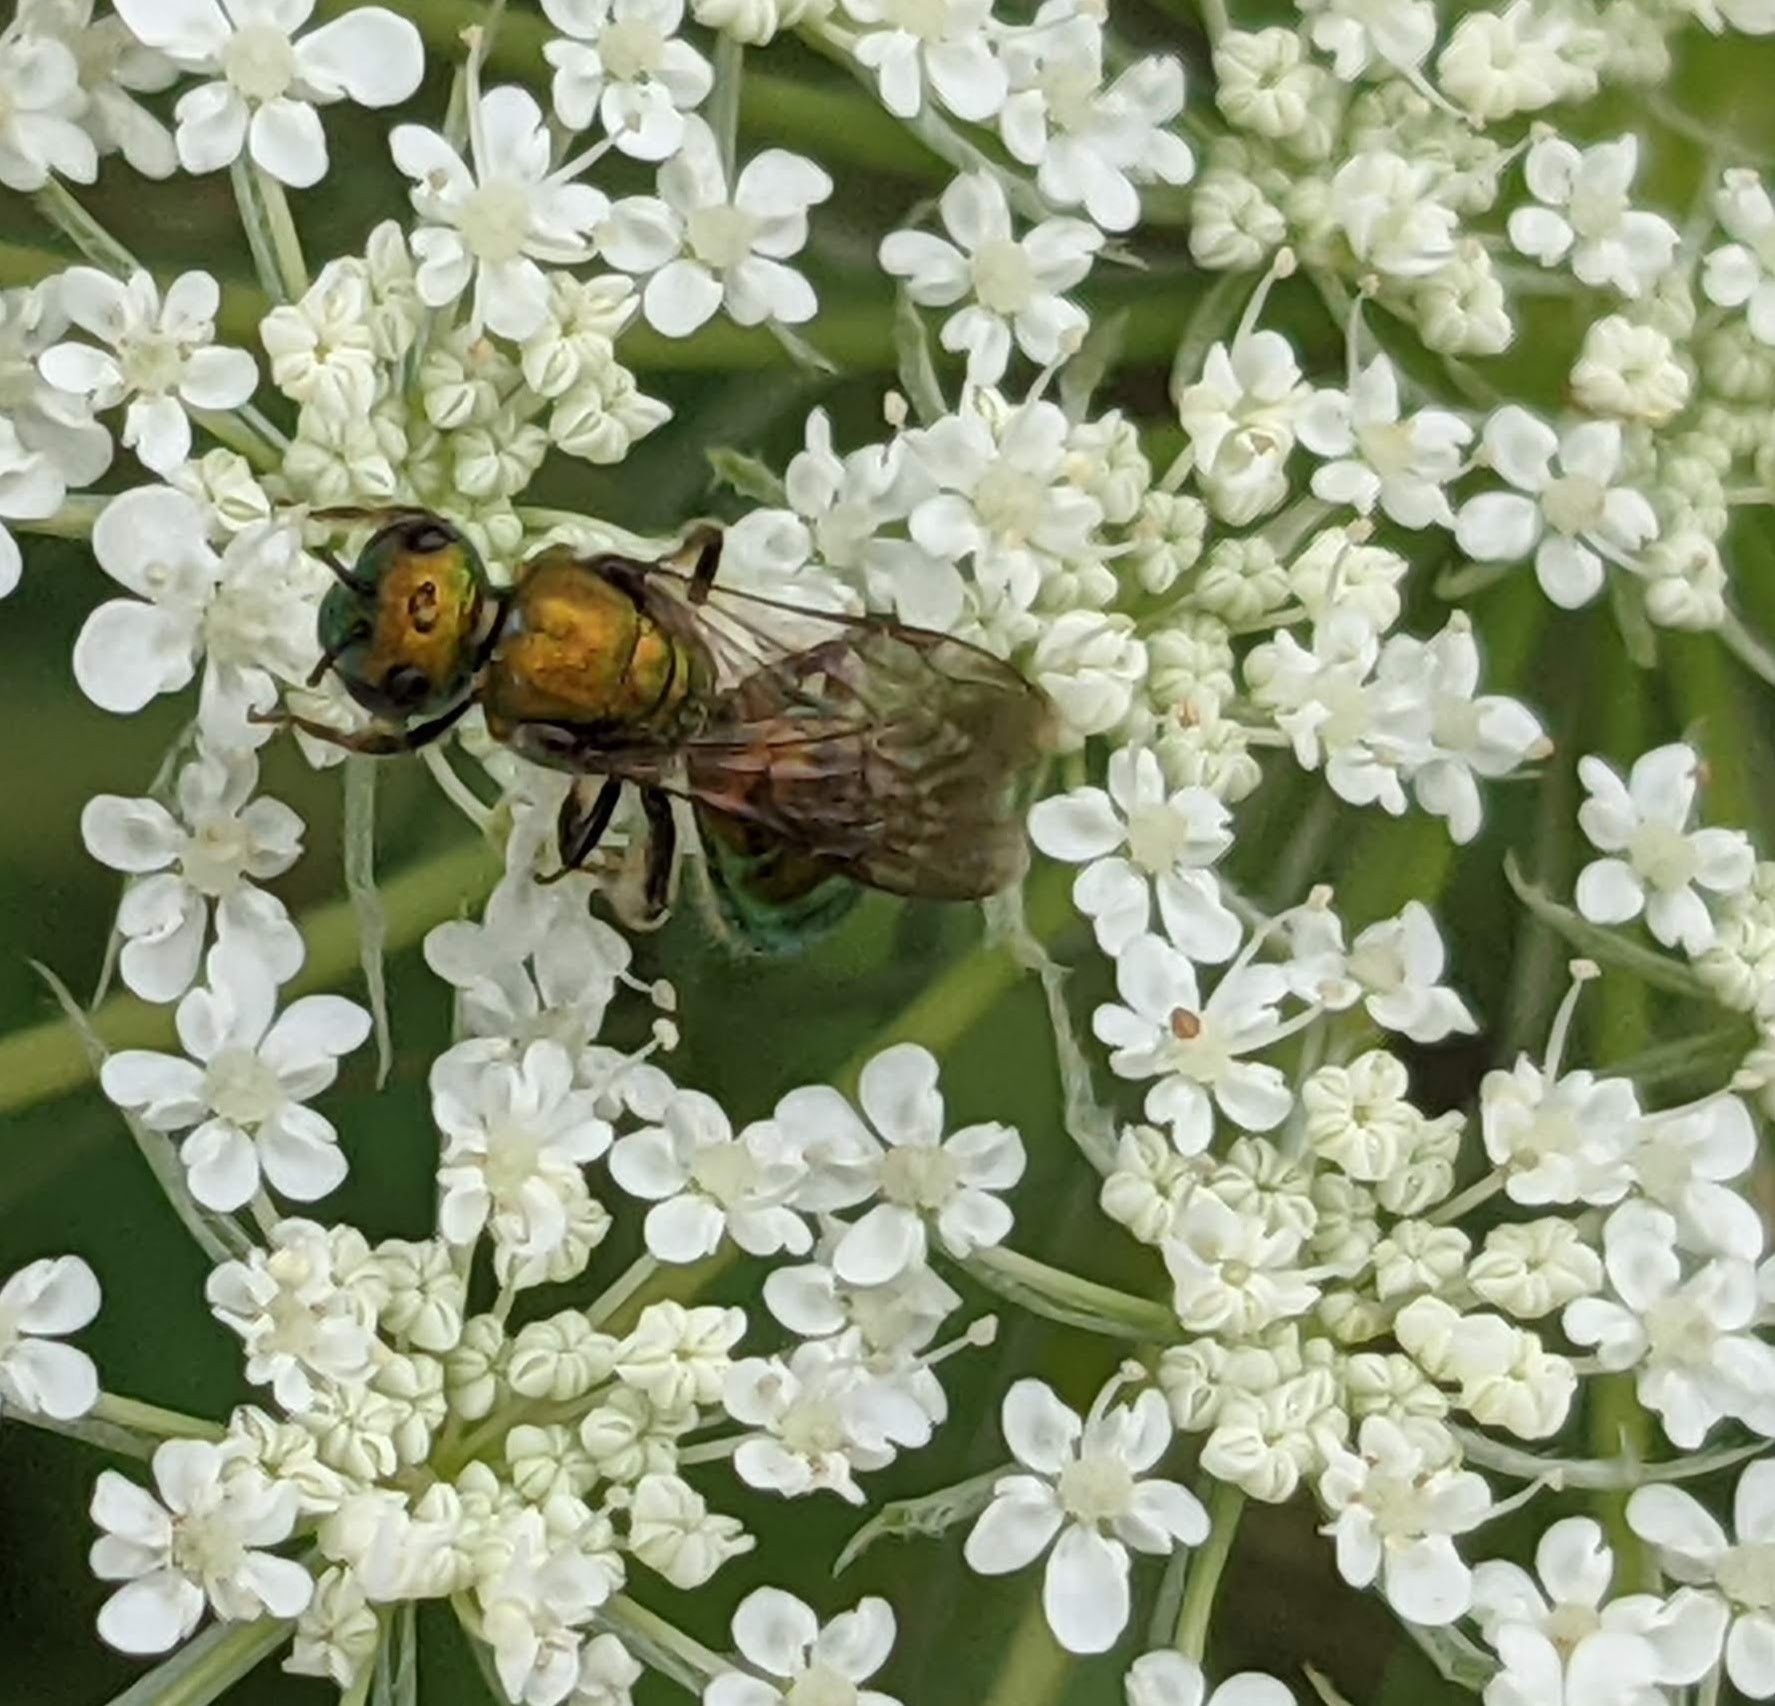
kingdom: Animalia
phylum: Arthropoda
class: Insecta
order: Hymenoptera
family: Halictidae
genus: Augochlora
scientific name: Augochlora pura
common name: Pure green sweat bee
